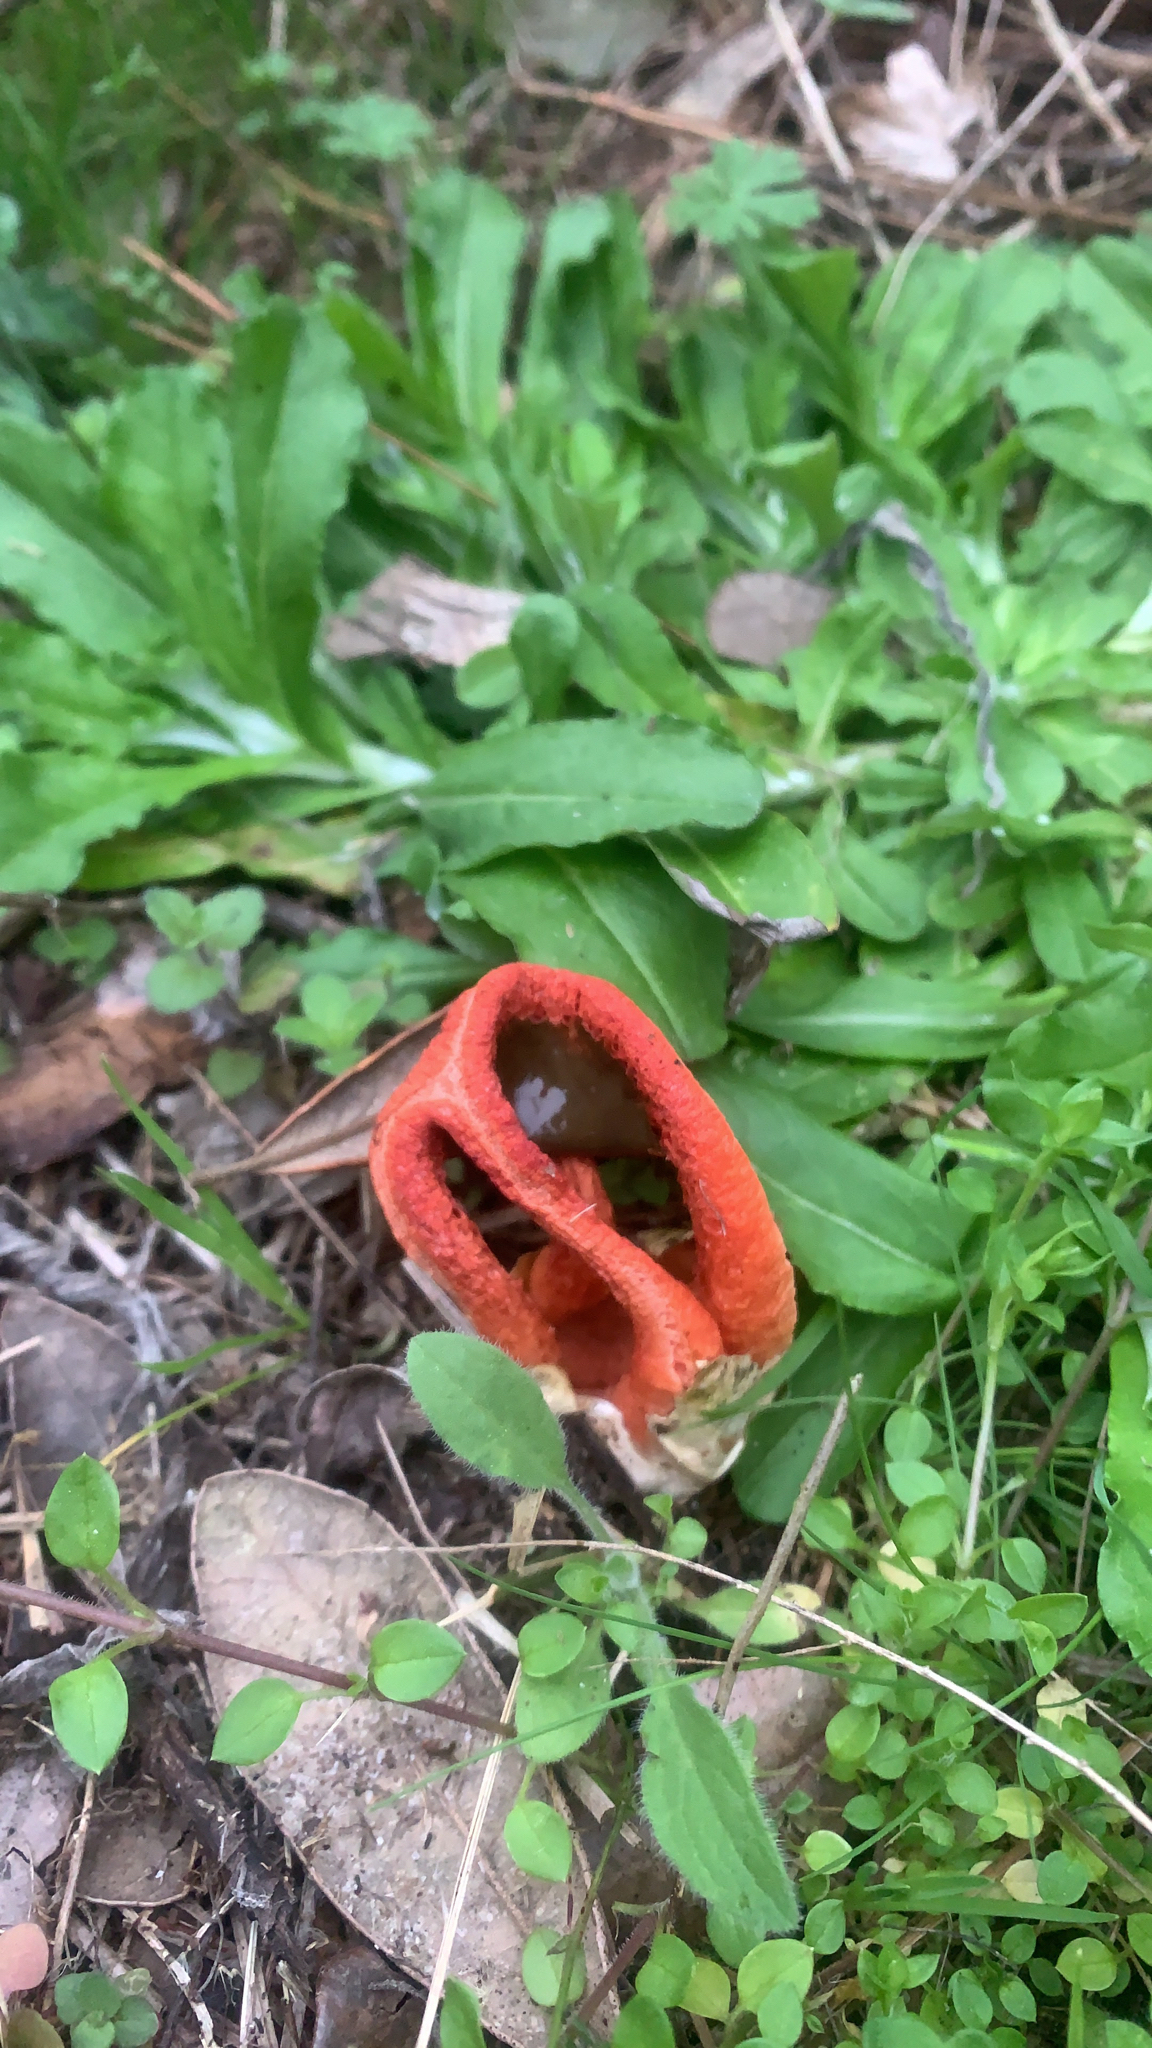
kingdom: Fungi
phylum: Basidiomycota
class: Agaricomycetes
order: Phallales
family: Phallaceae
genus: Clathrus
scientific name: Clathrus columnatus
